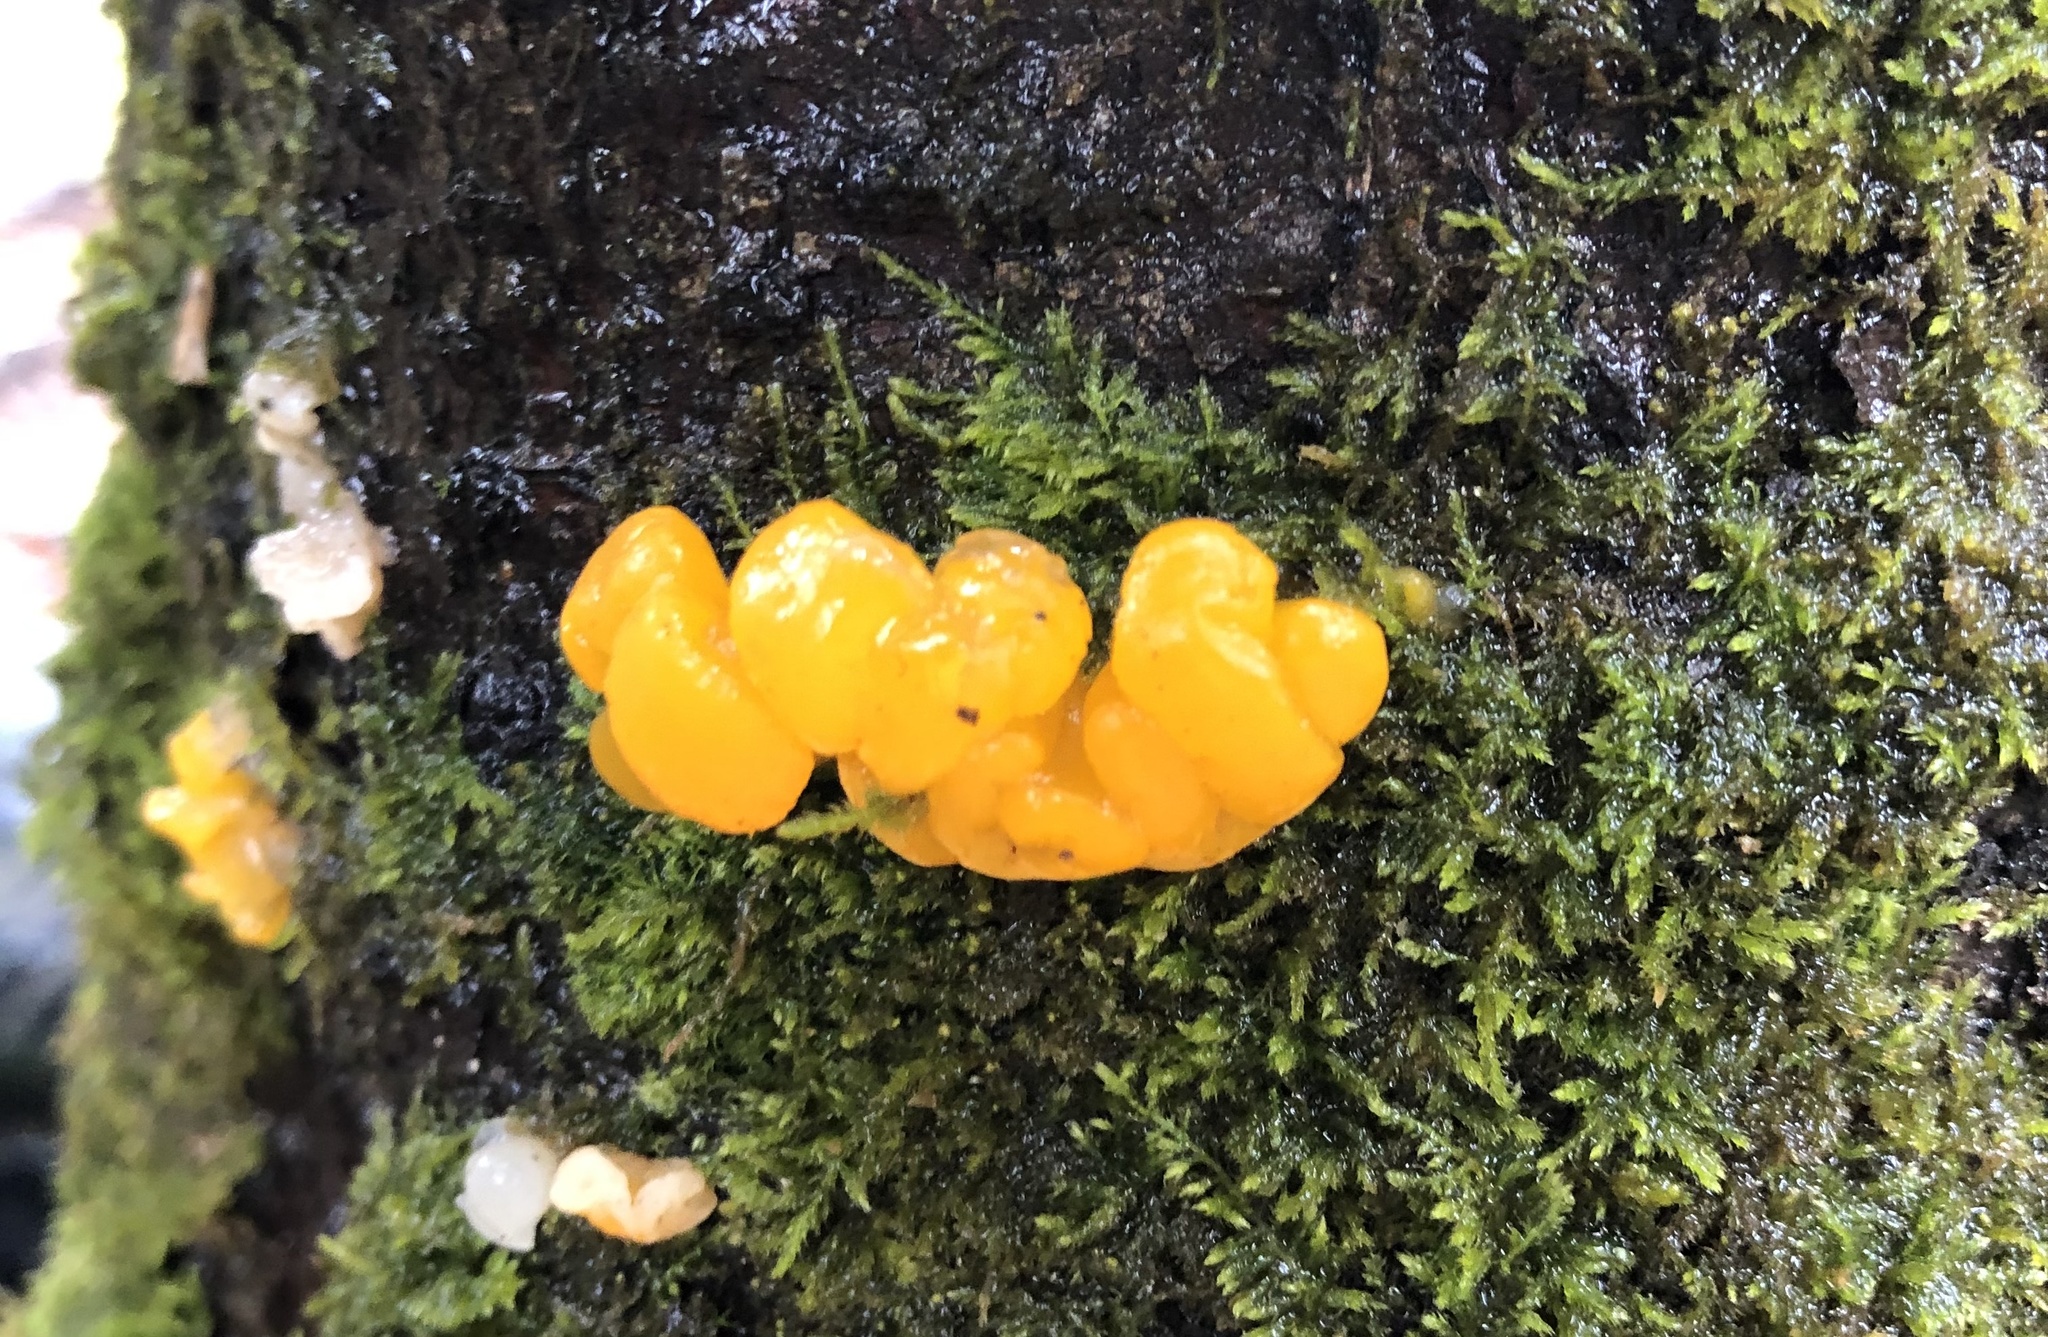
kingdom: Fungi
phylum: Basidiomycota
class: Dacrymycetes
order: Dacrymycetales
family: Dacrymycetaceae
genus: Dacrymyces
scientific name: Dacrymyces chrysospermus
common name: Orange jelly spot
